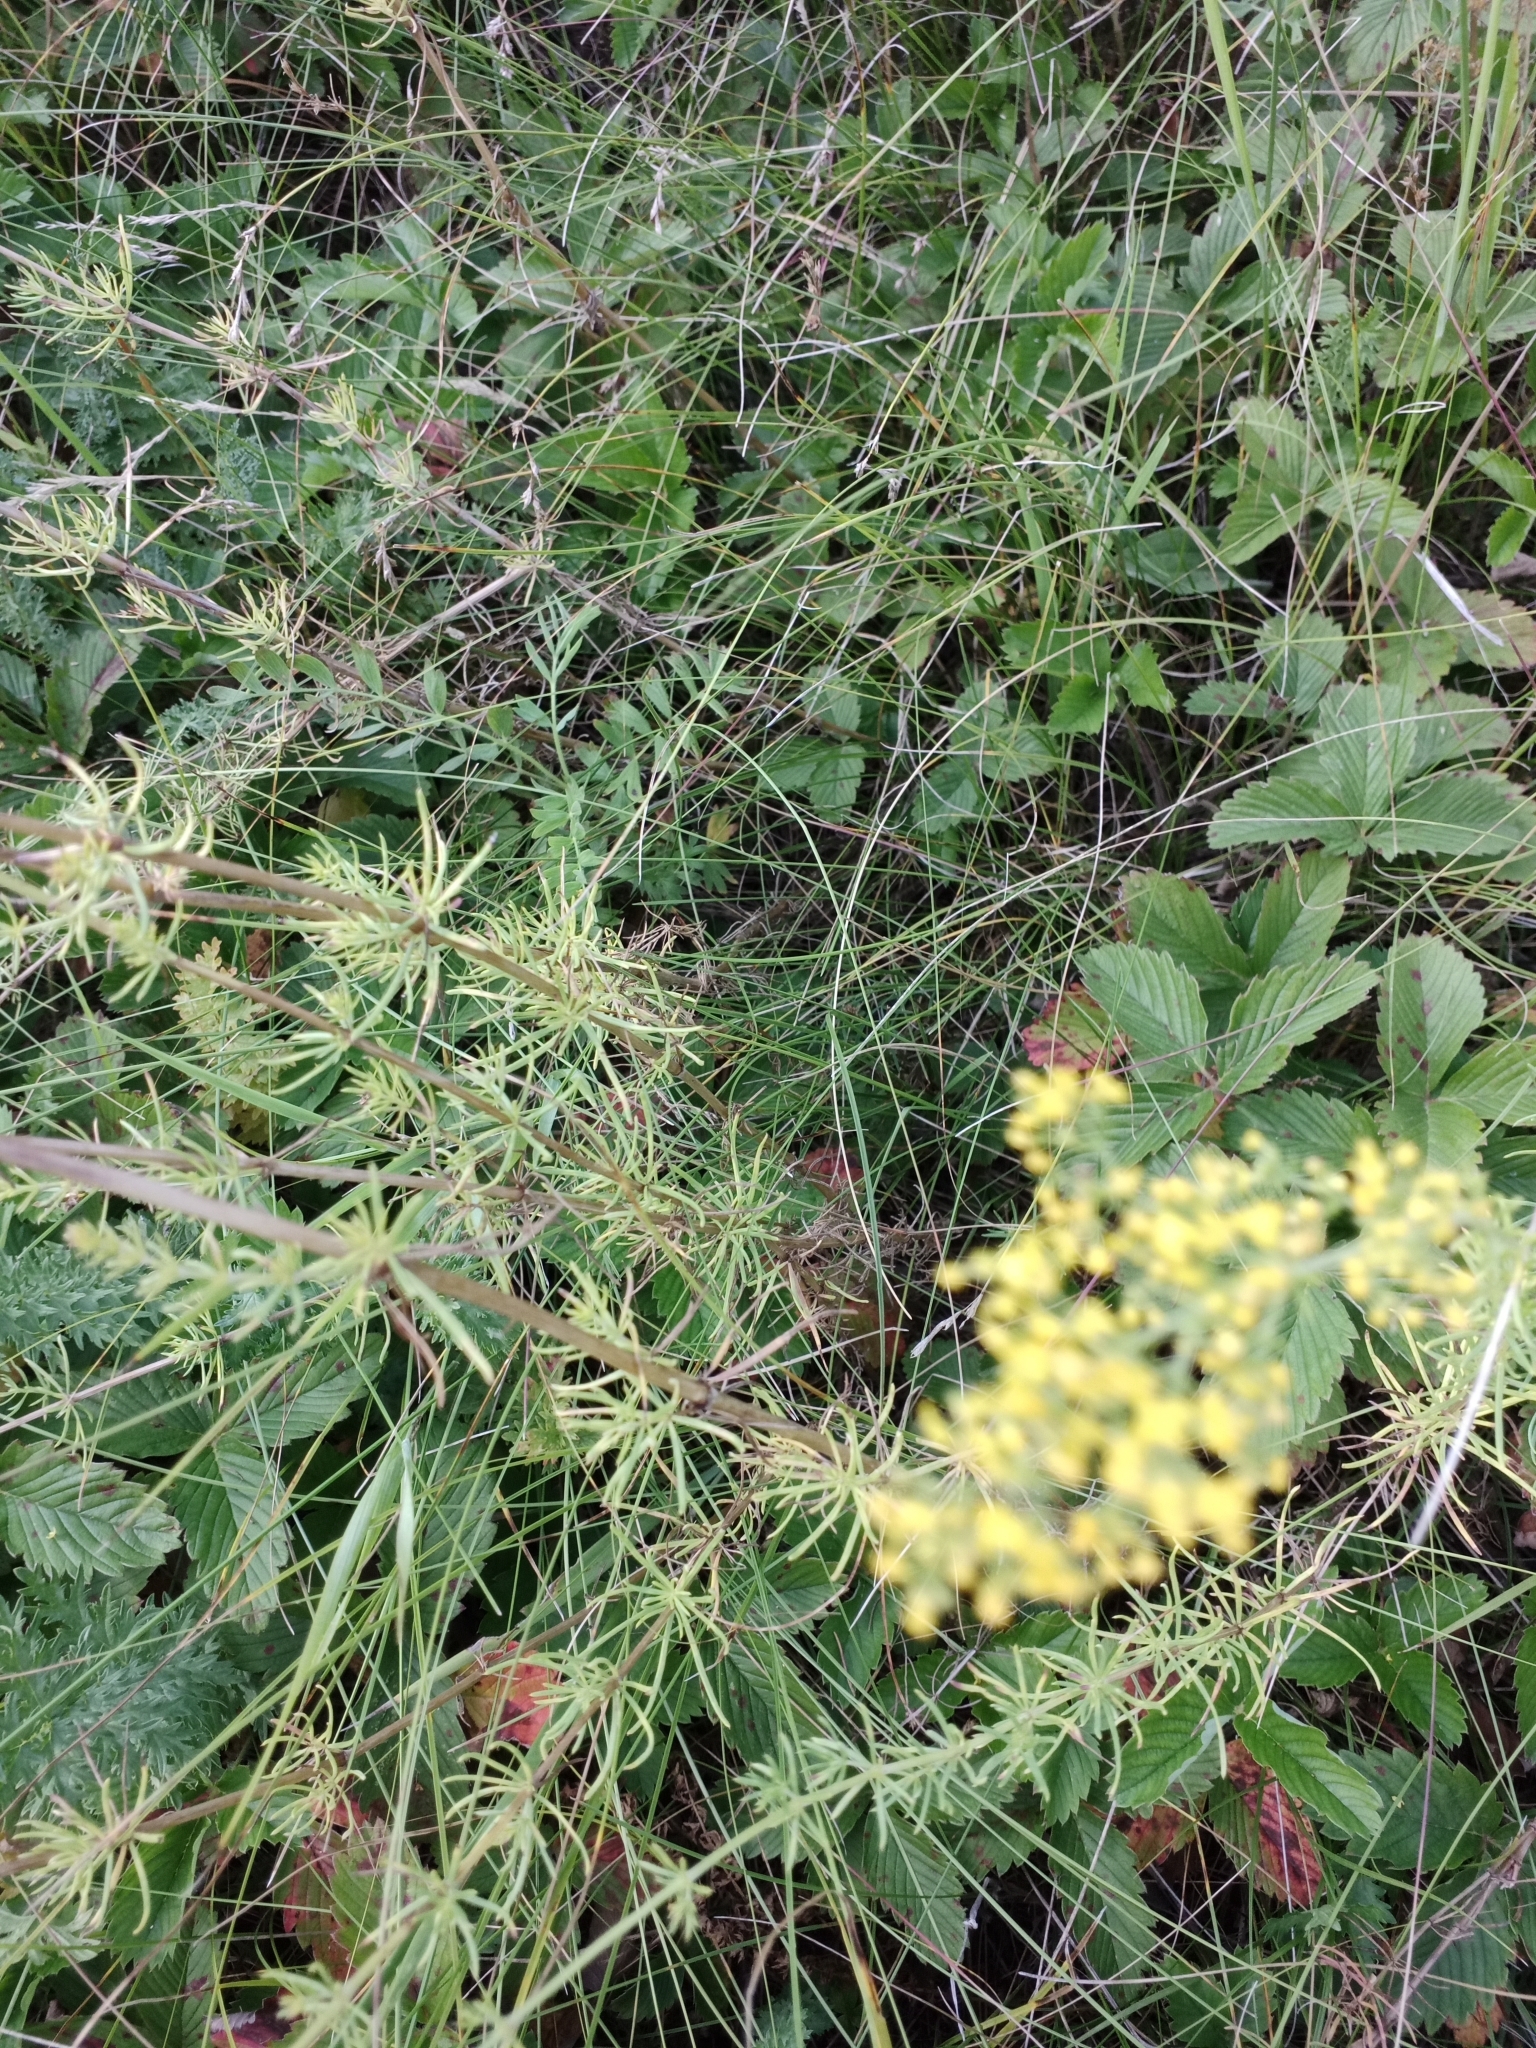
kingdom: Plantae
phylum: Tracheophyta
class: Magnoliopsida
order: Gentianales
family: Rubiaceae
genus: Galium
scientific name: Galium verum
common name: Lady's bedstraw
